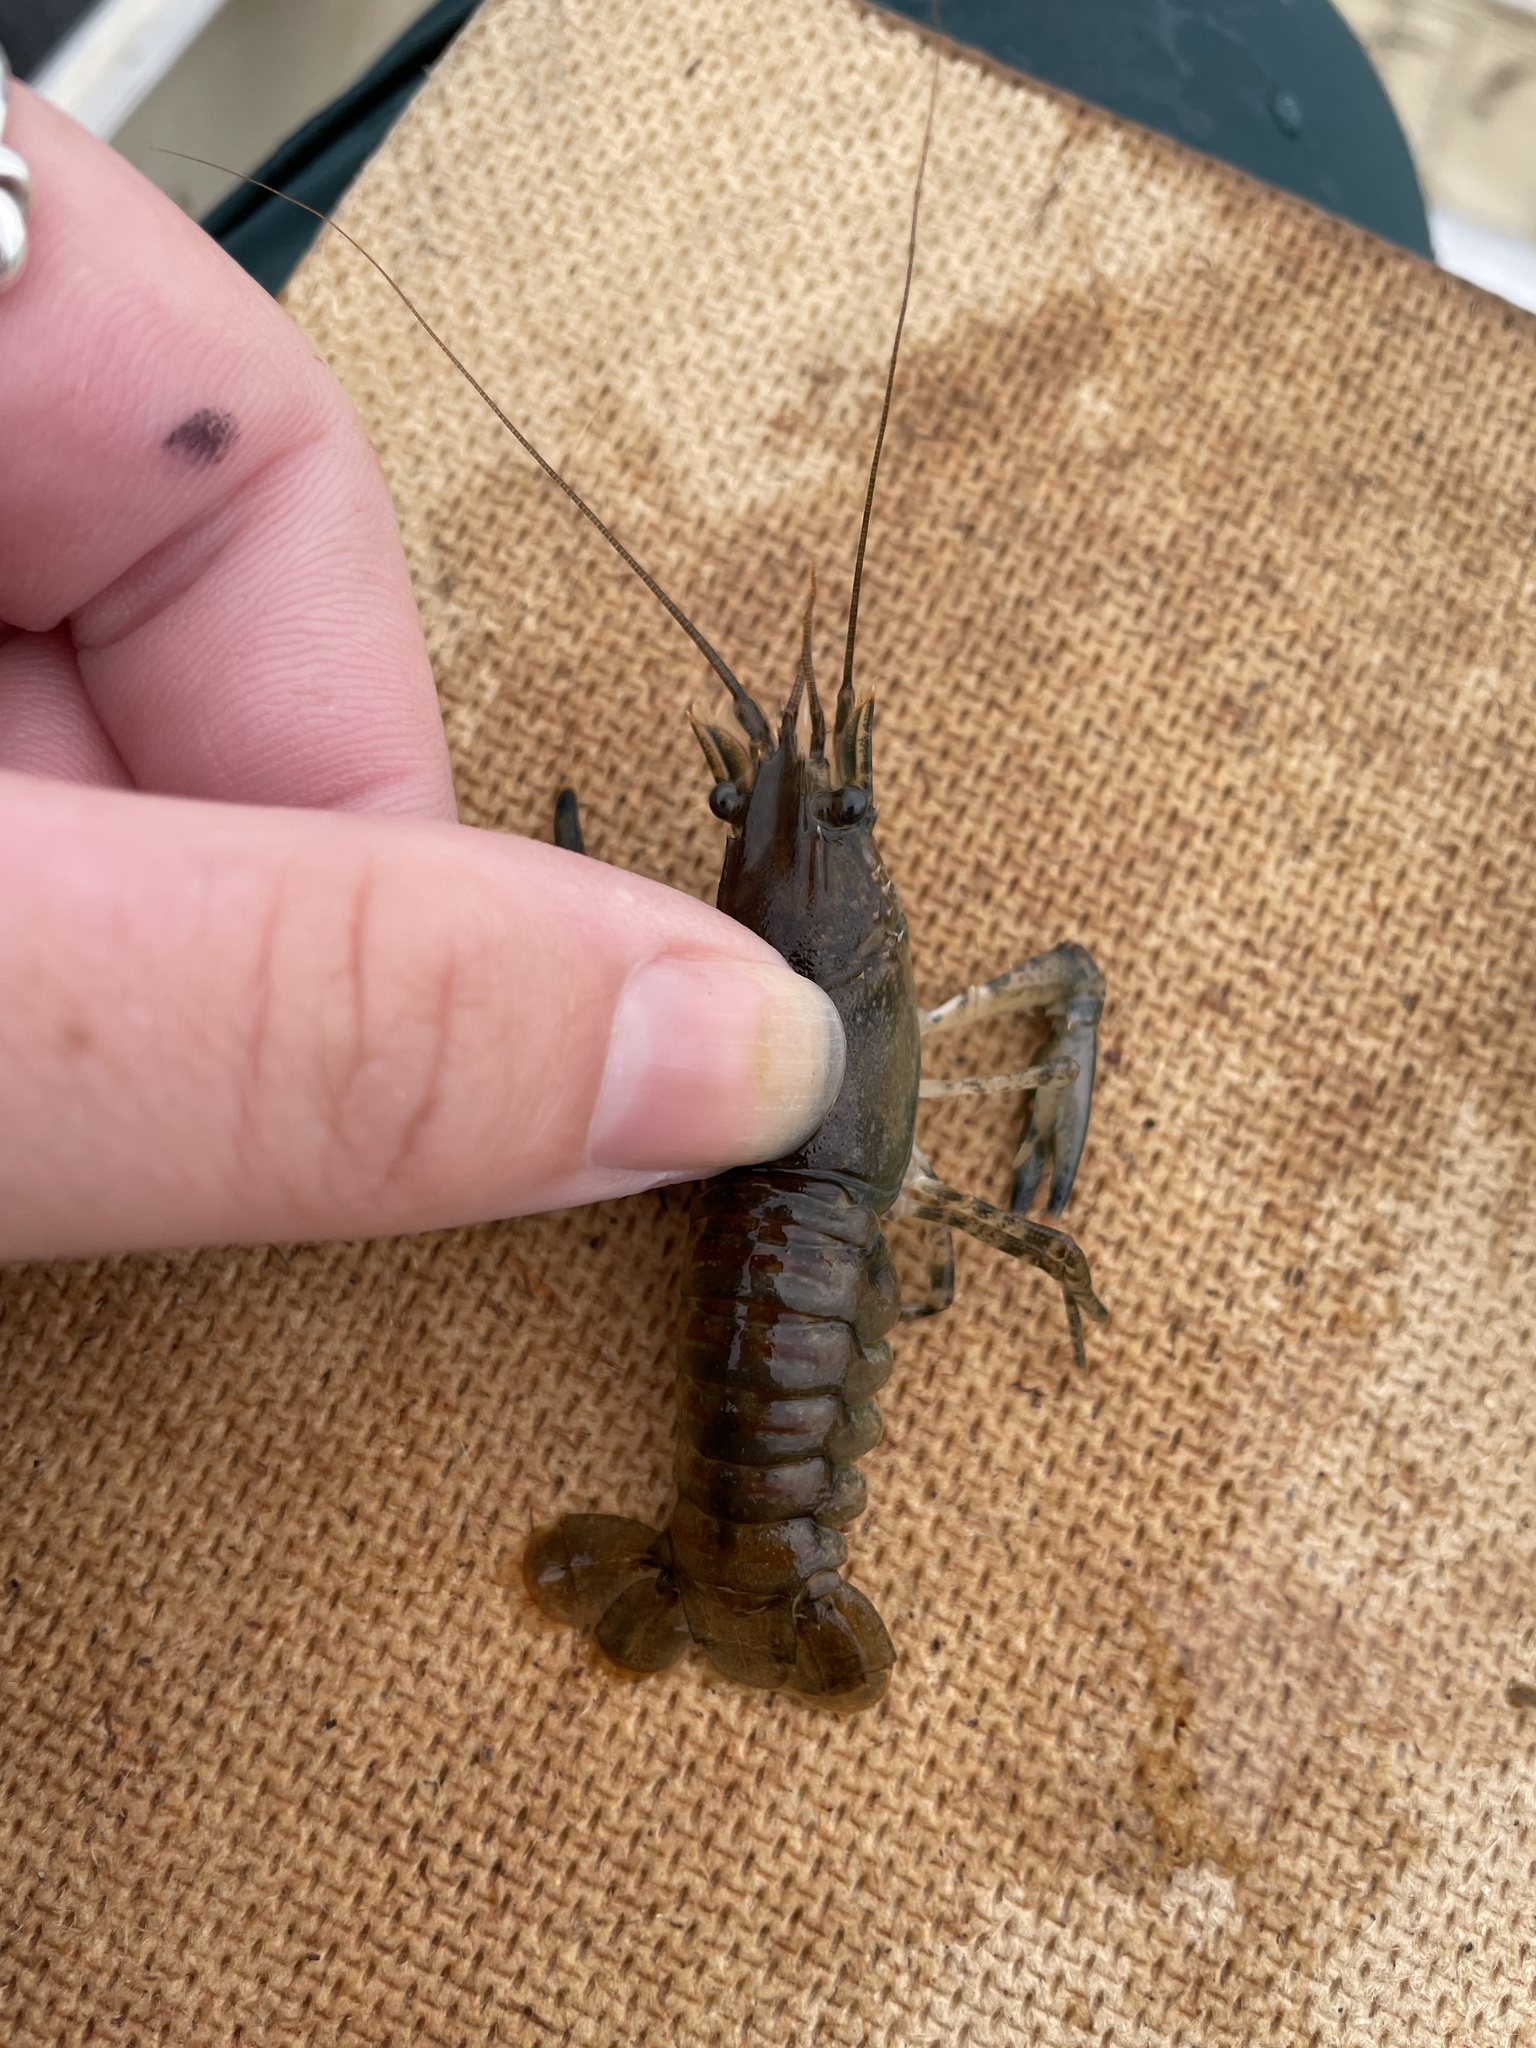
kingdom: Animalia
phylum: Arthropoda
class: Malacostraca
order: Decapoda
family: Cambaridae
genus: Faxonius
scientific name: Faxonius limosus
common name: American crayfish
